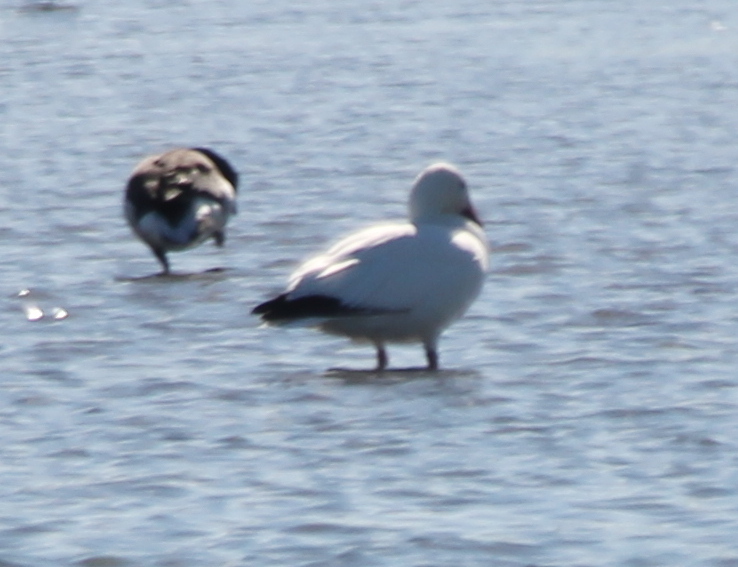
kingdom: Animalia
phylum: Chordata
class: Aves
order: Anseriformes
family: Anatidae
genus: Anser
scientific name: Anser caerulescens
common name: Snow goose
